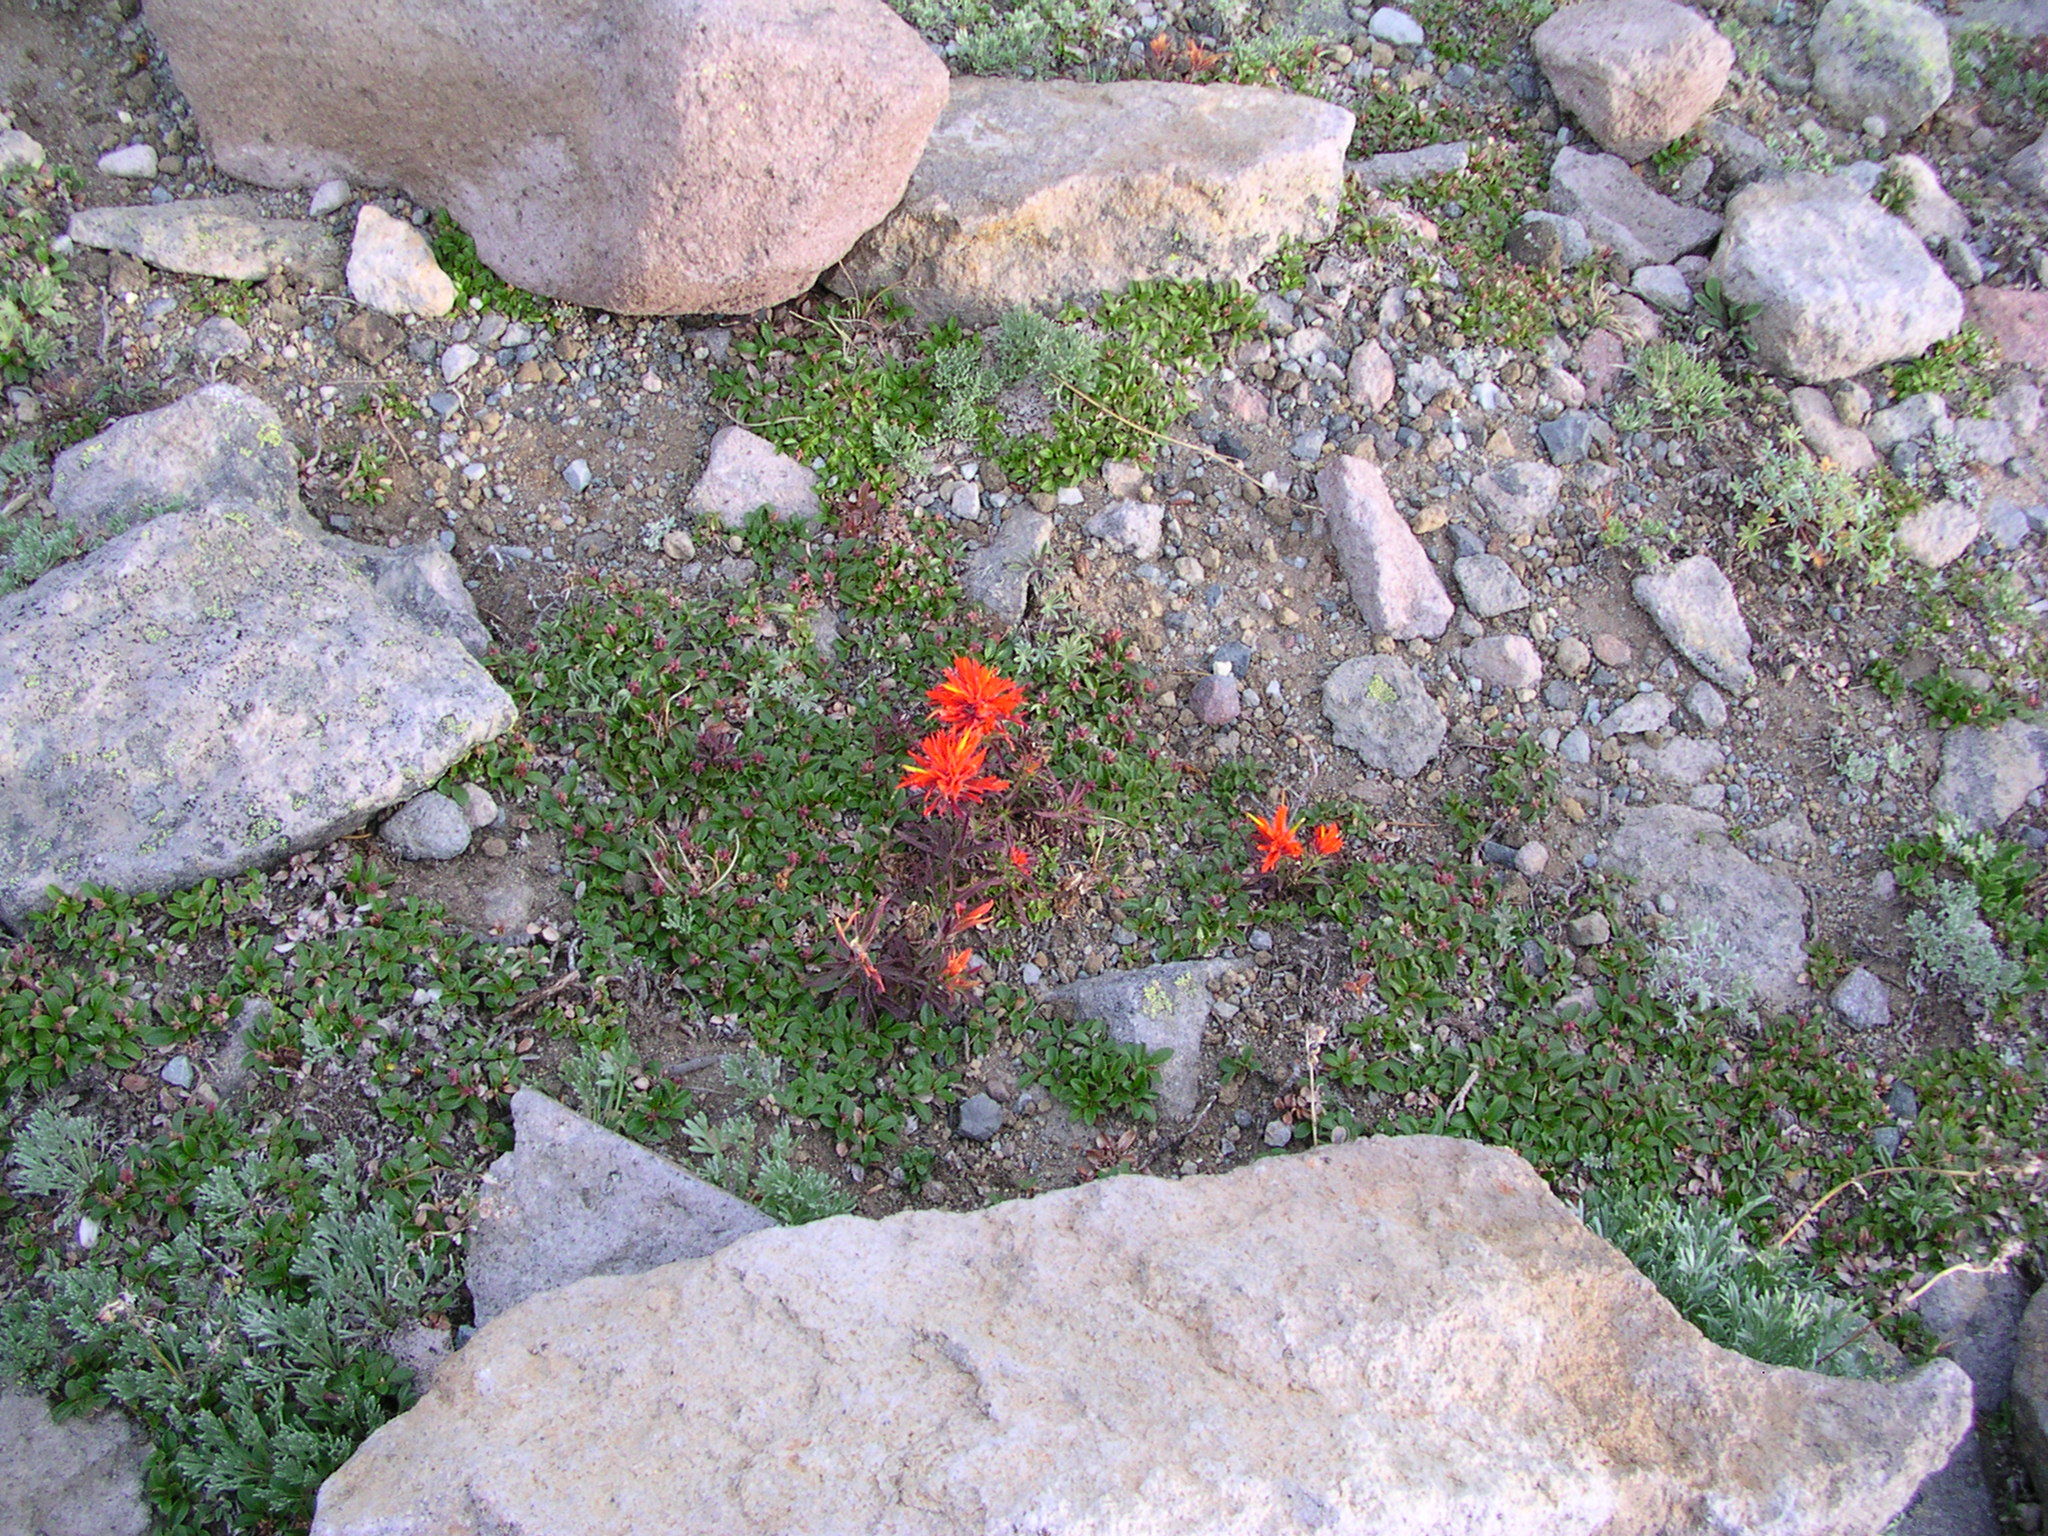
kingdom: Plantae
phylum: Tracheophyta
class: Magnoliopsida
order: Lamiales
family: Orobanchaceae
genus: Castilleja
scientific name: Castilleja rupicola
